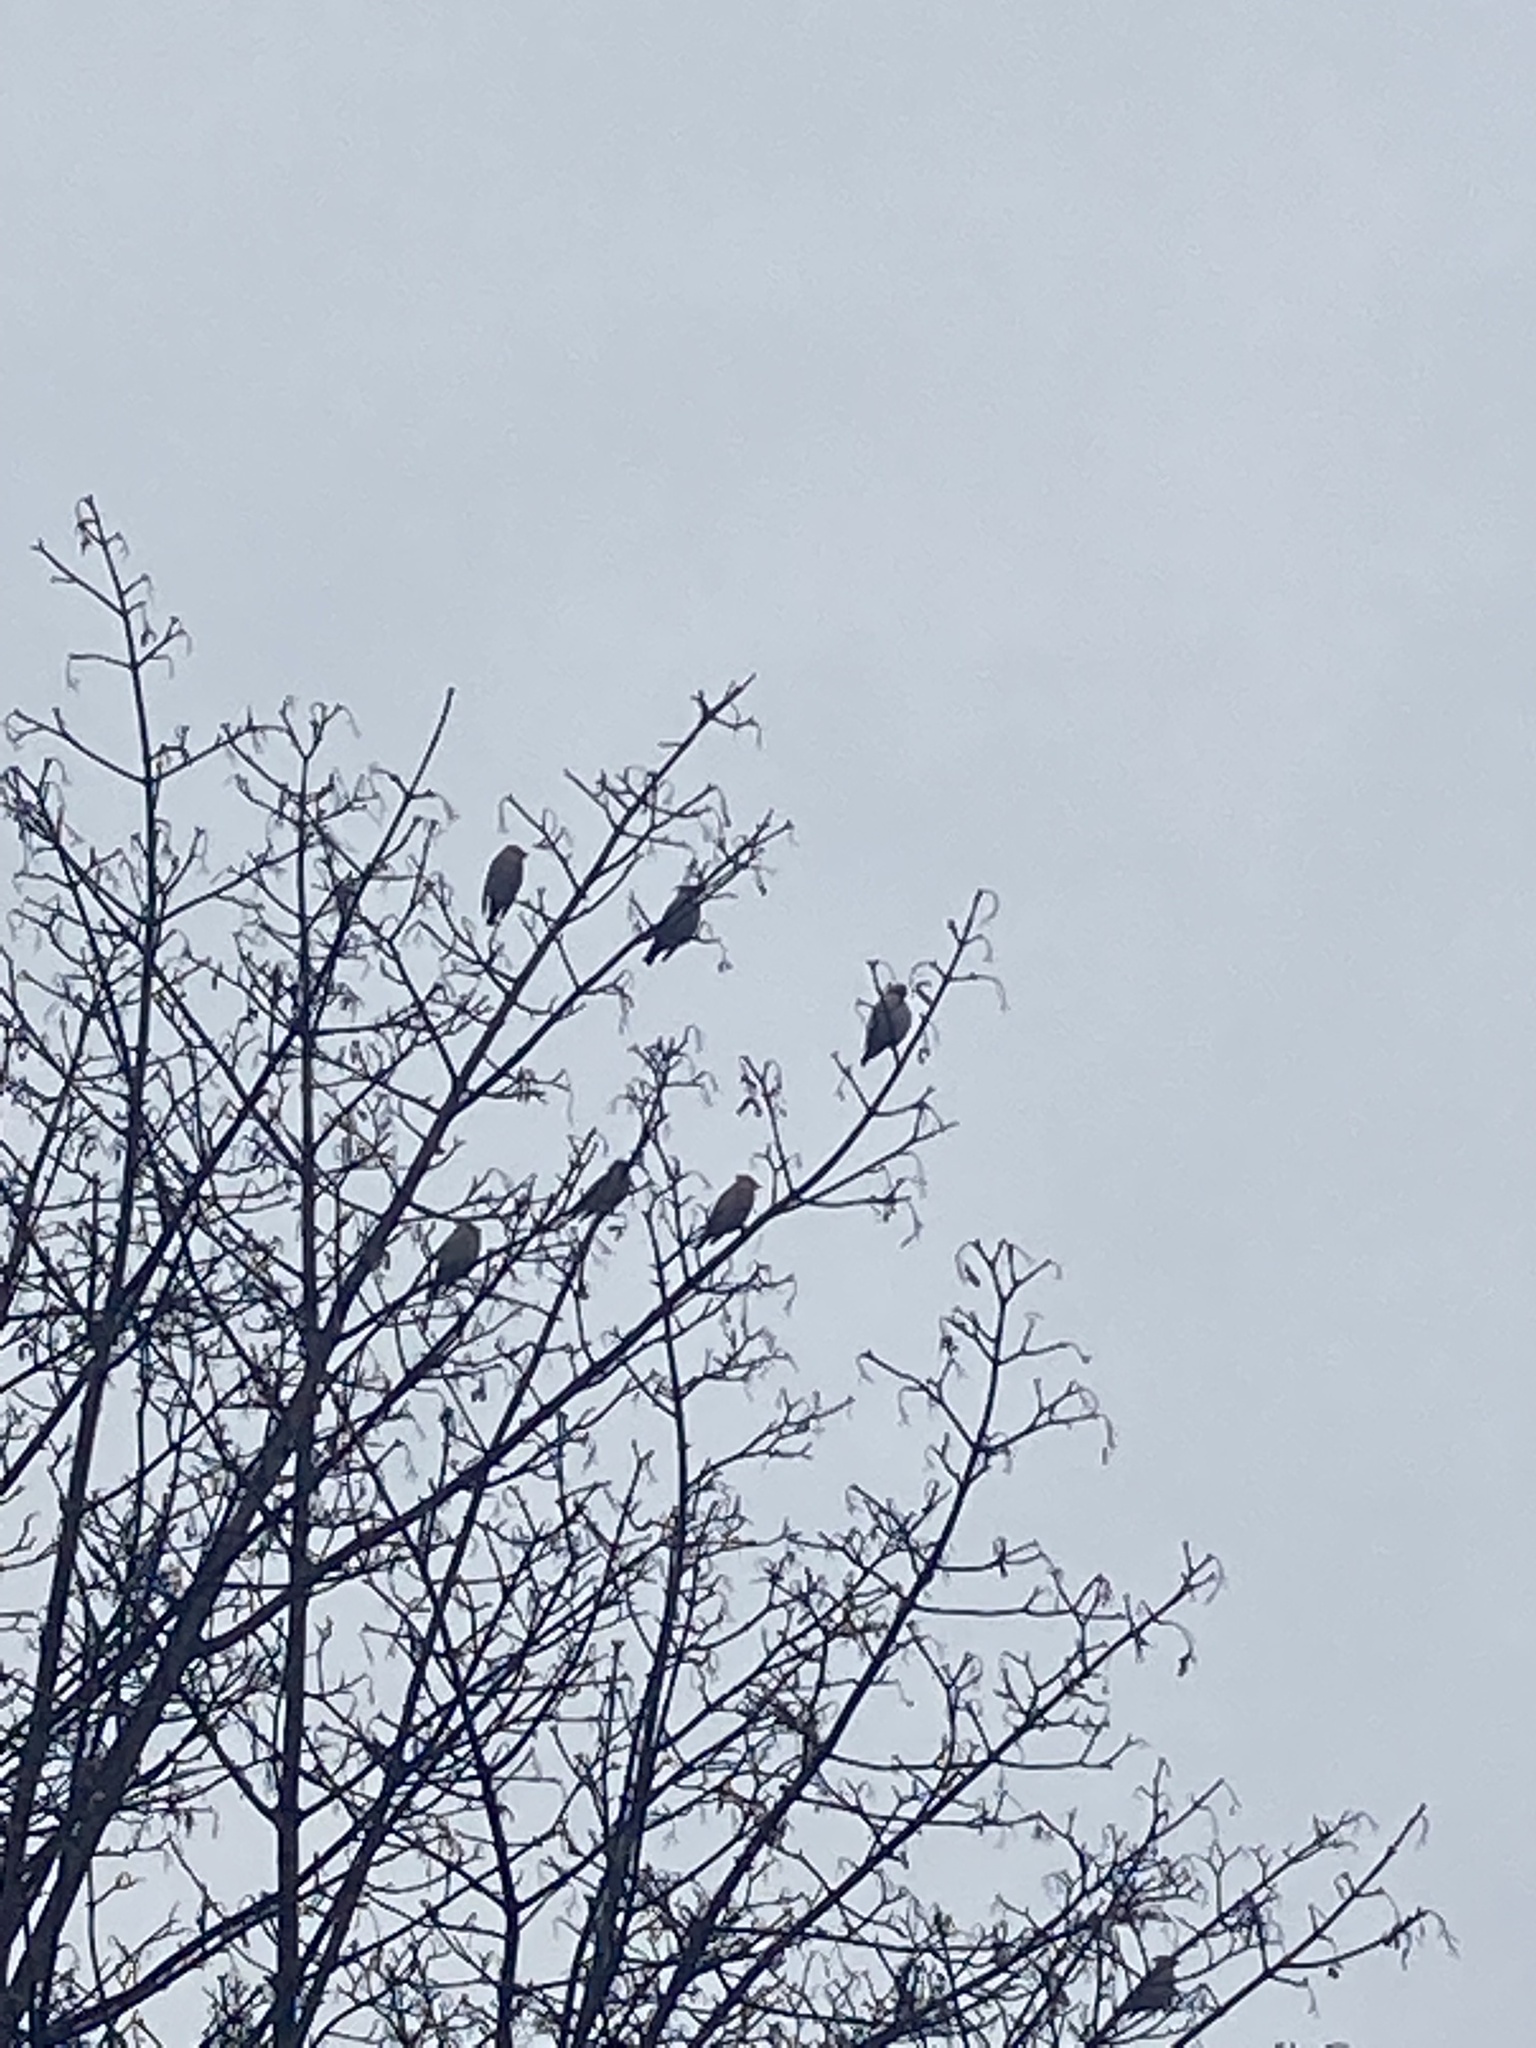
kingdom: Animalia
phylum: Chordata
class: Aves
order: Passeriformes
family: Bombycillidae
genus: Bombycilla
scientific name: Bombycilla garrulus
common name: Bohemian waxwing
